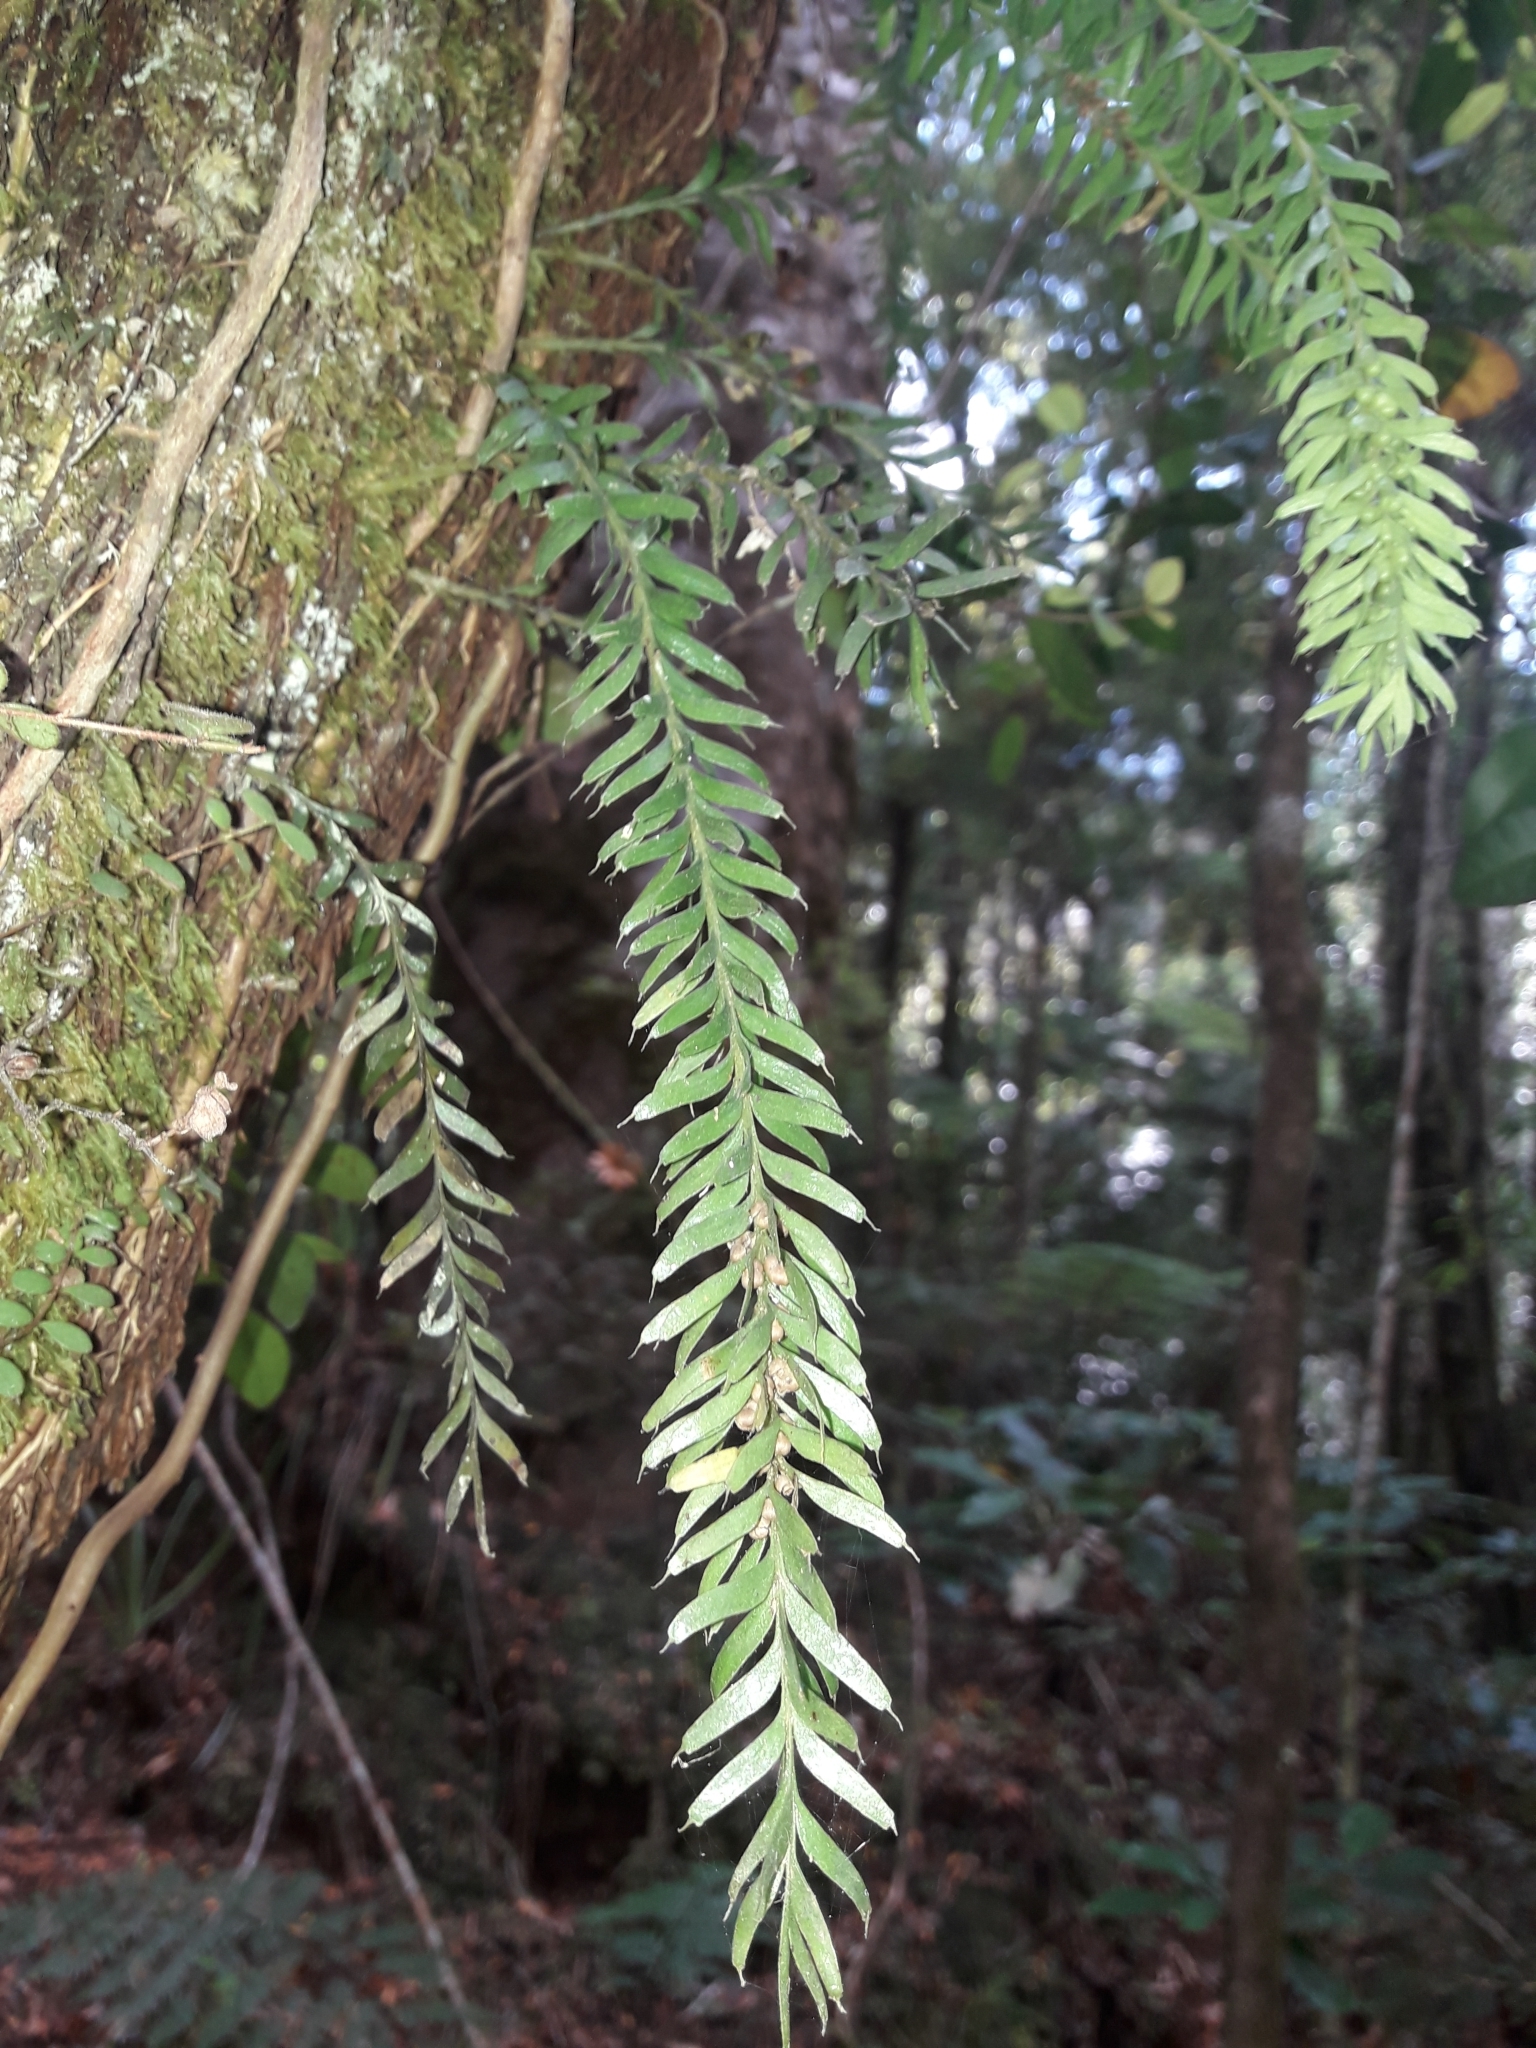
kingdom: Plantae
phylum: Tracheophyta
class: Polypodiopsida
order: Psilotales
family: Psilotaceae
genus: Tmesipteris
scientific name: Tmesipteris sigmatifolia
